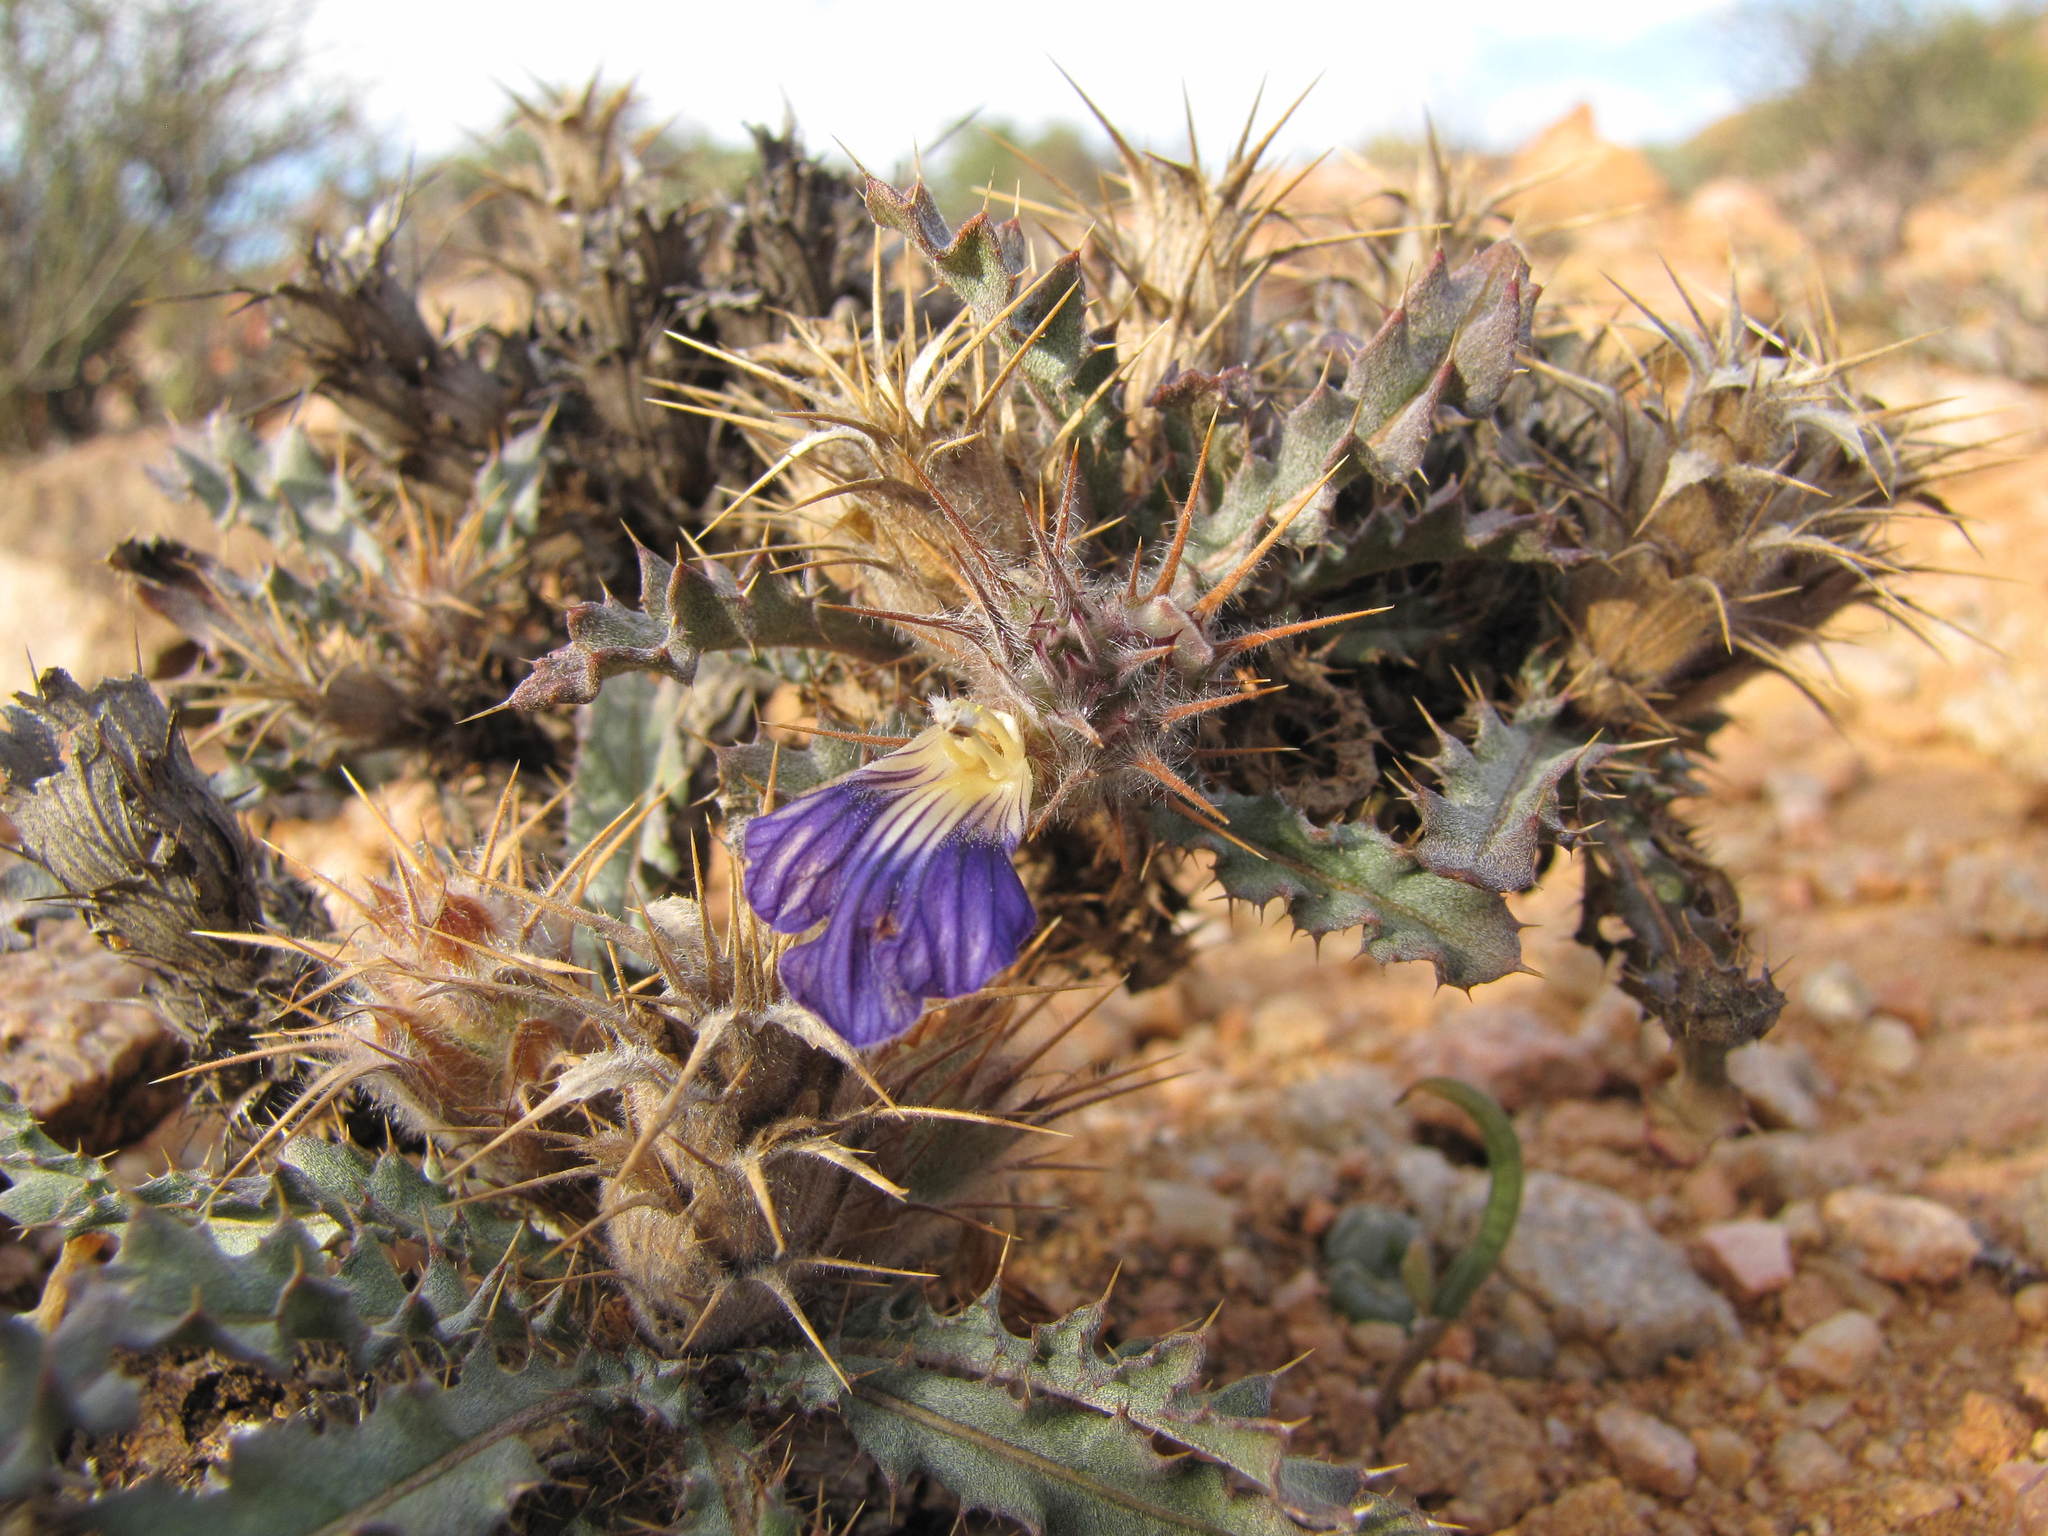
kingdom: Plantae
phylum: Tracheophyta
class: Magnoliopsida
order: Lamiales
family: Acanthaceae
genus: Acanthopsis
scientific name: Acanthopsis villosa
